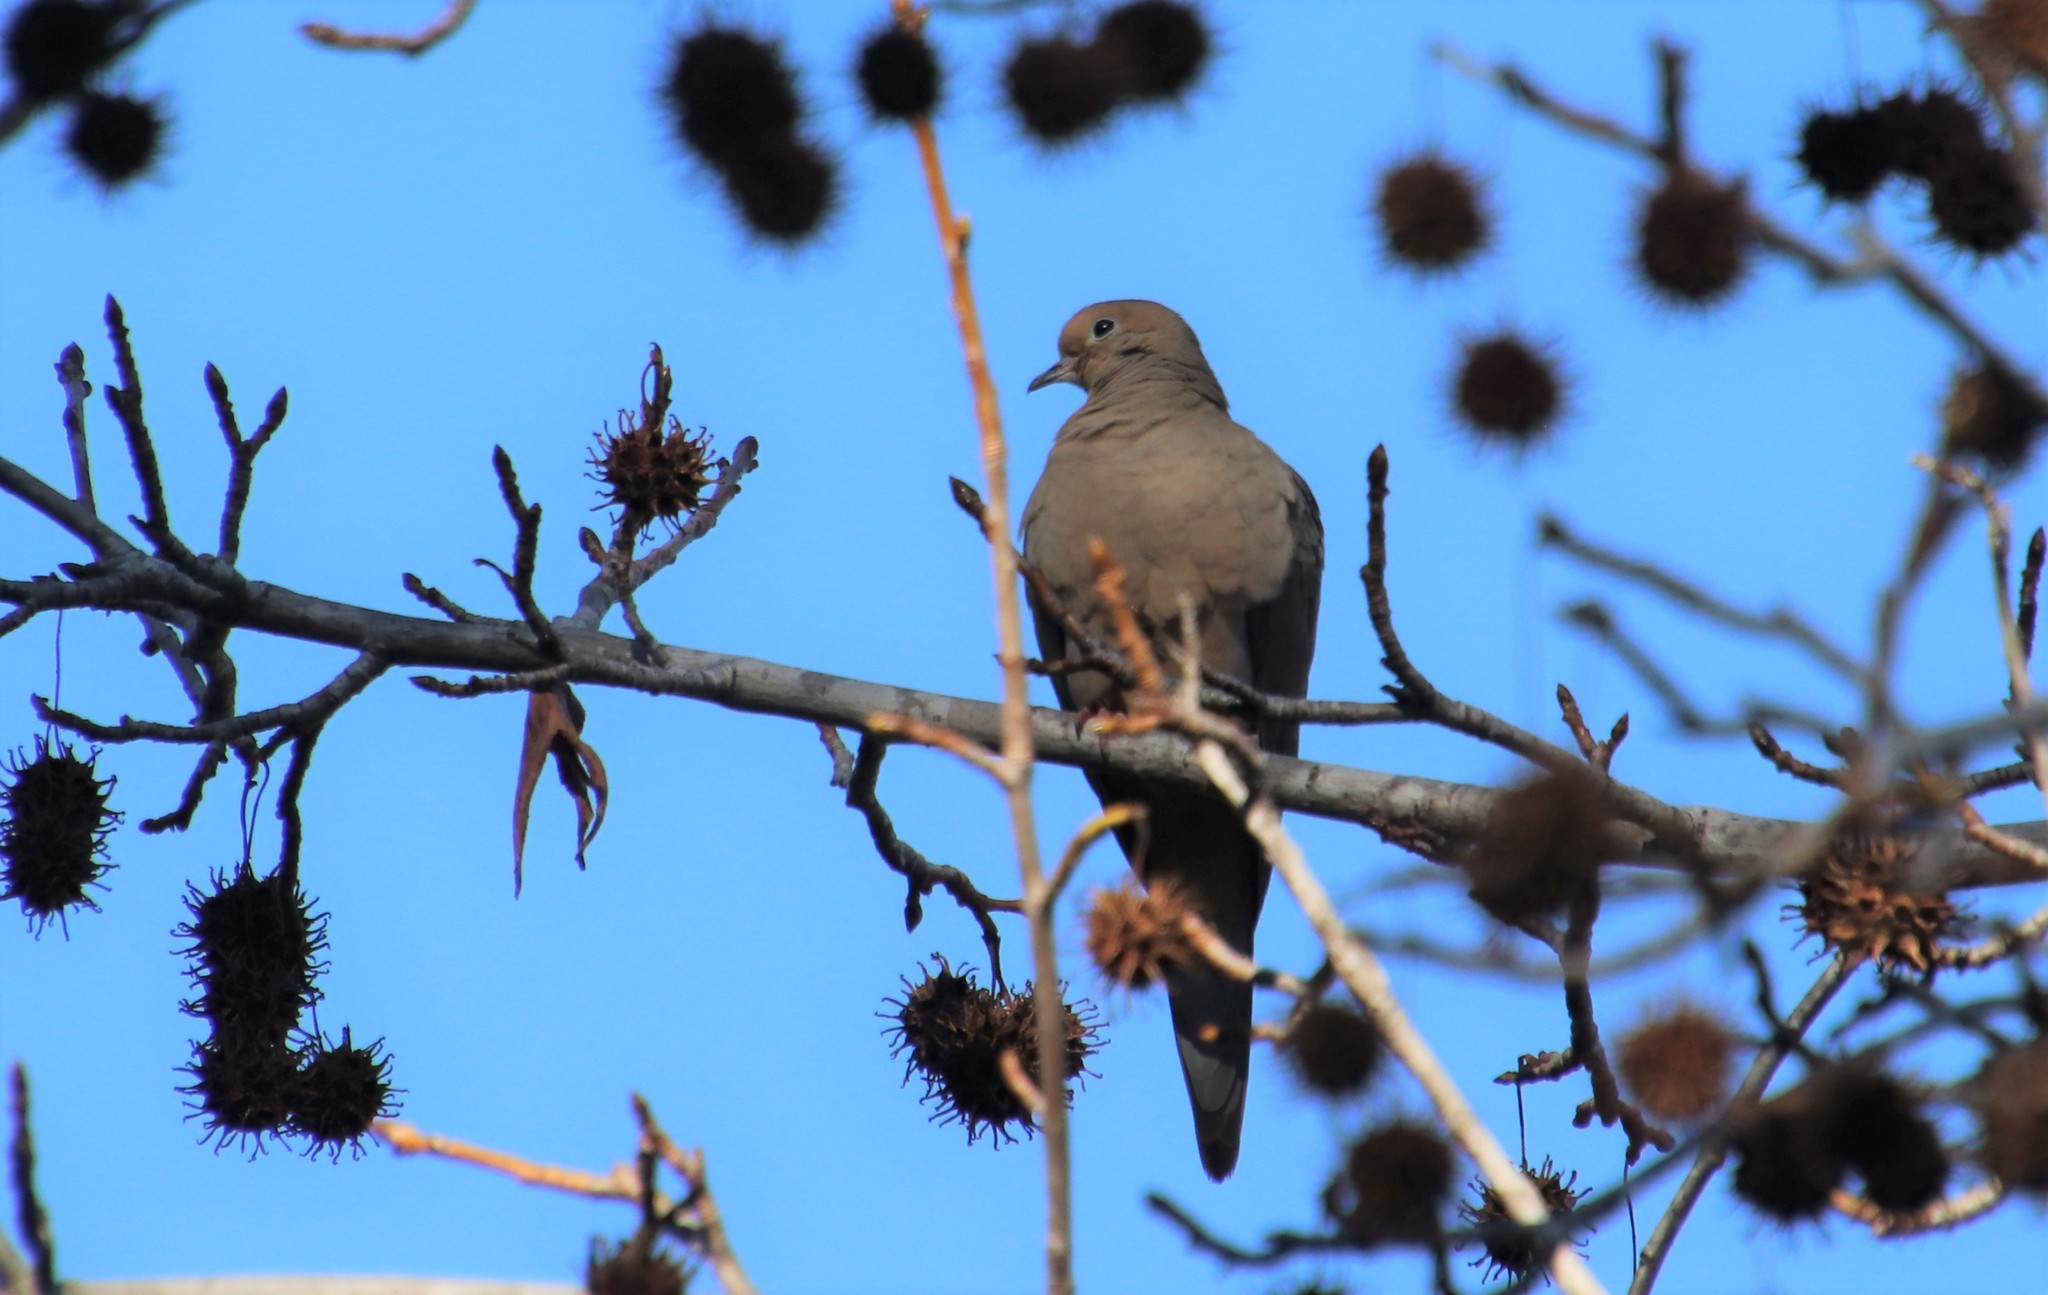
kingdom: Animalia
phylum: Chordata
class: Aves
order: Columbiformes
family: Columbidae
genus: Zenaida
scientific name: Zenaida macroura
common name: Mourning dove
